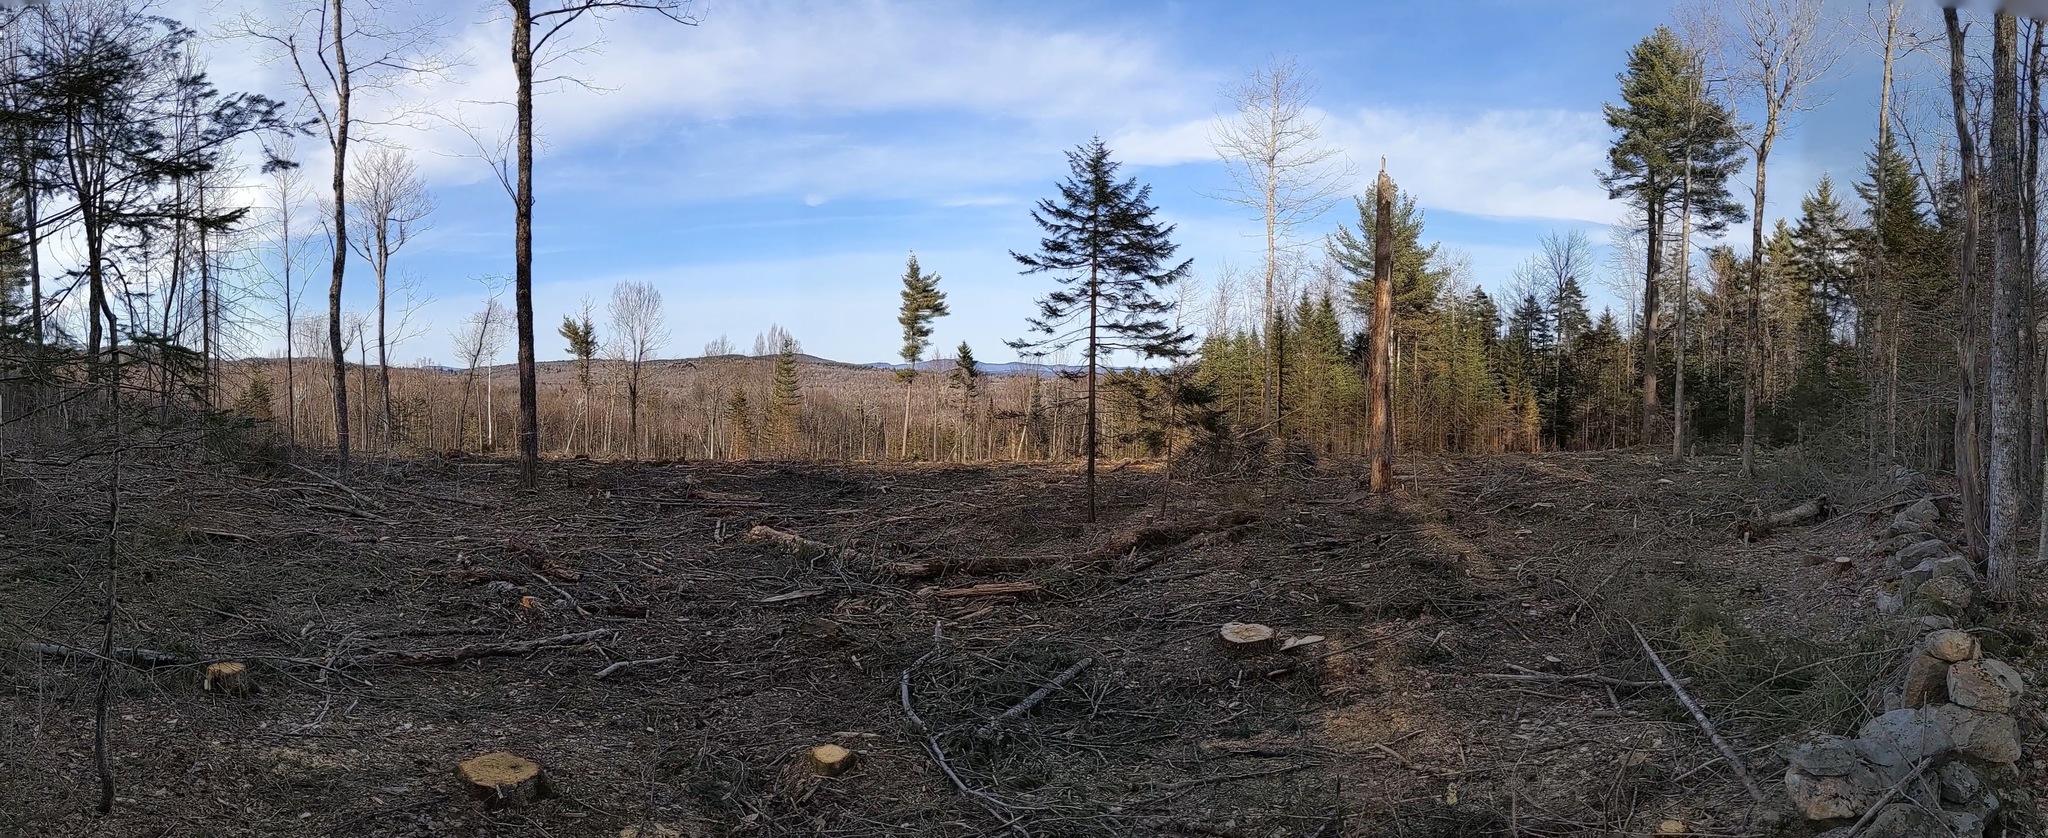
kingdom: Plantae
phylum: Tracheophyta
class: Pinopsida
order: Pinales
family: Pinaceae
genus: Pinus
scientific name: Pinus strobus
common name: Weymouth pine
